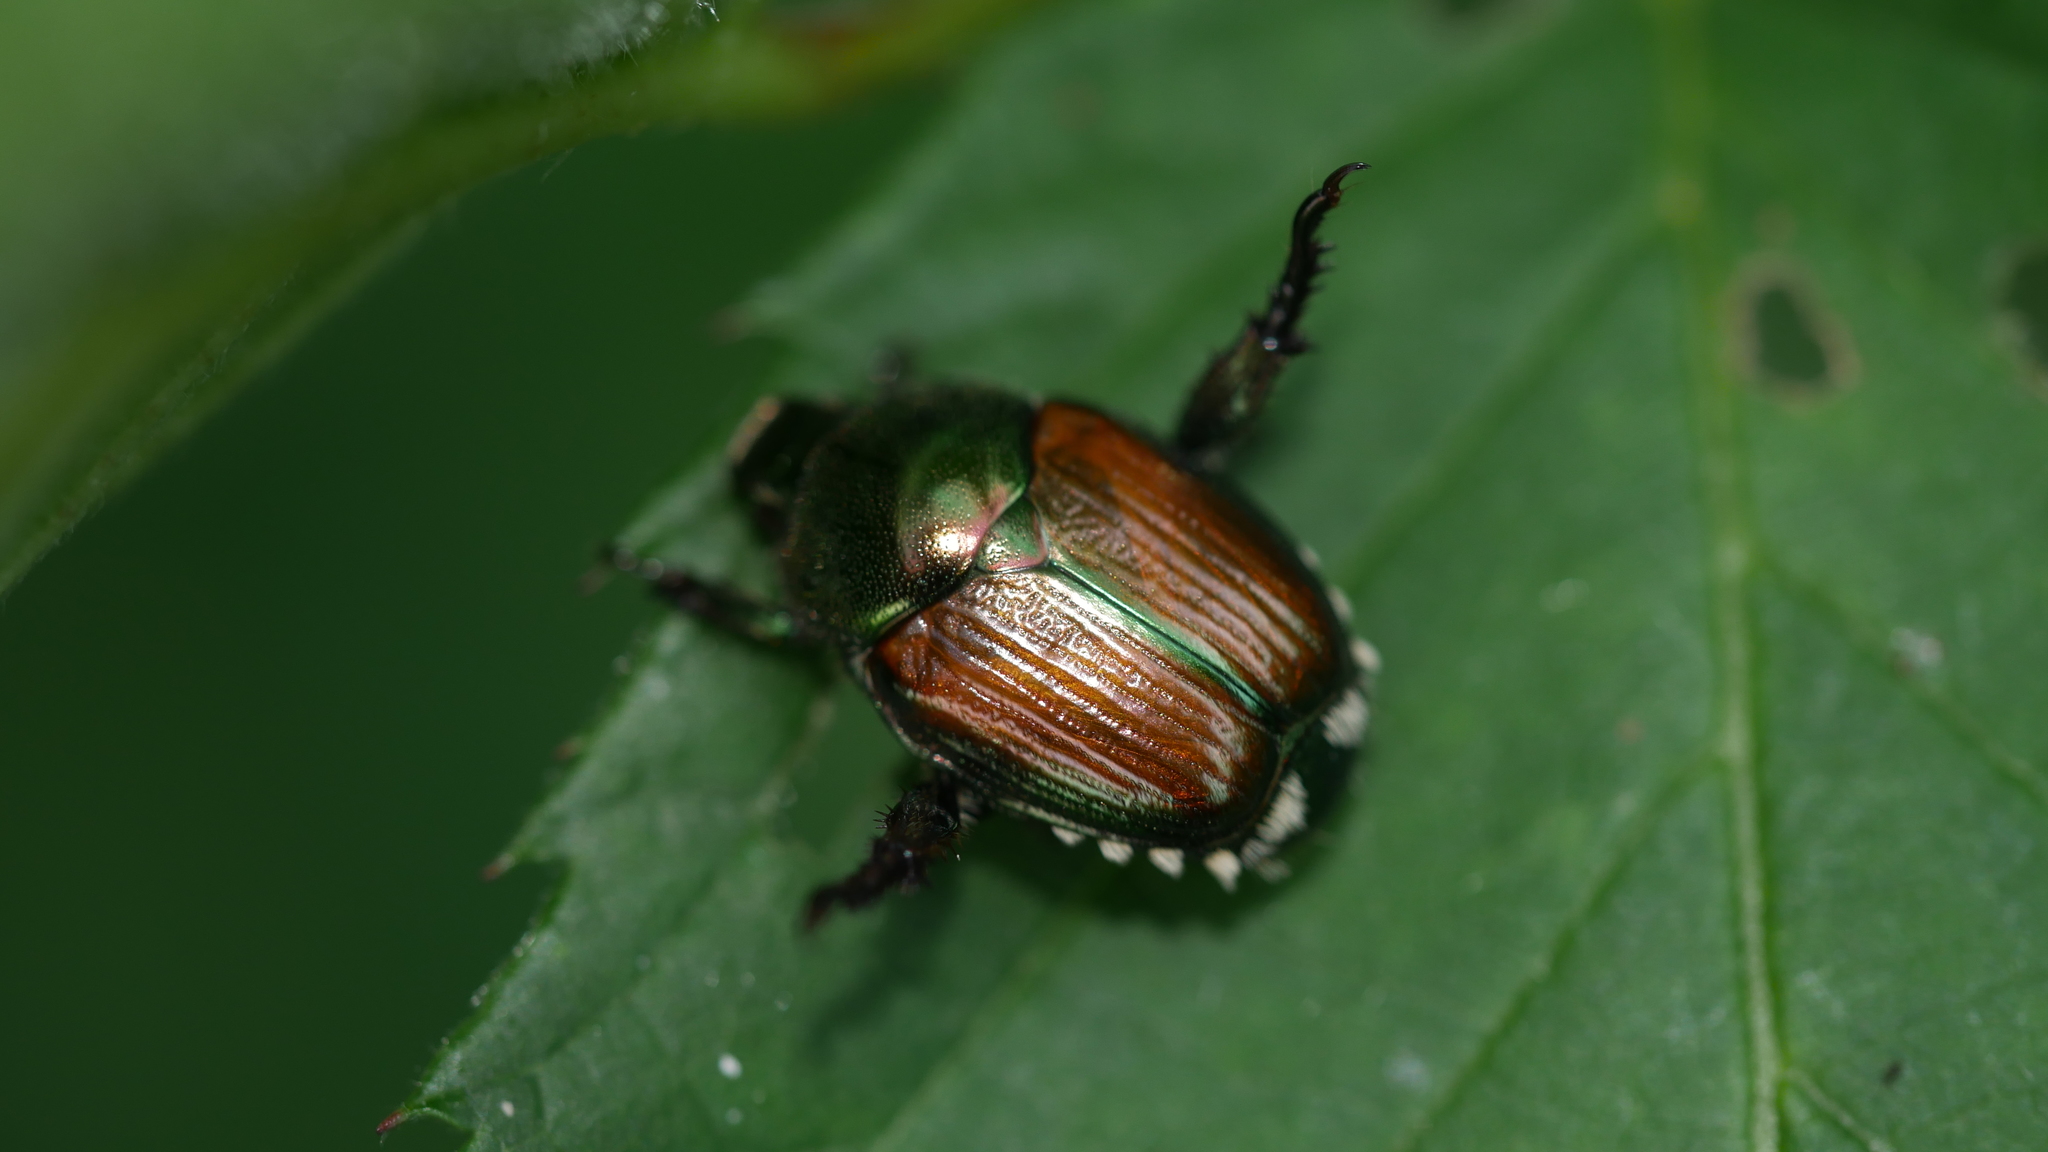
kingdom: Animalia
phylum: Arthropoda
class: Insecta
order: Coleoptera
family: Scarabaeidae
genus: Popillia
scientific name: Popillia japonica
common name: Japanese beetle
